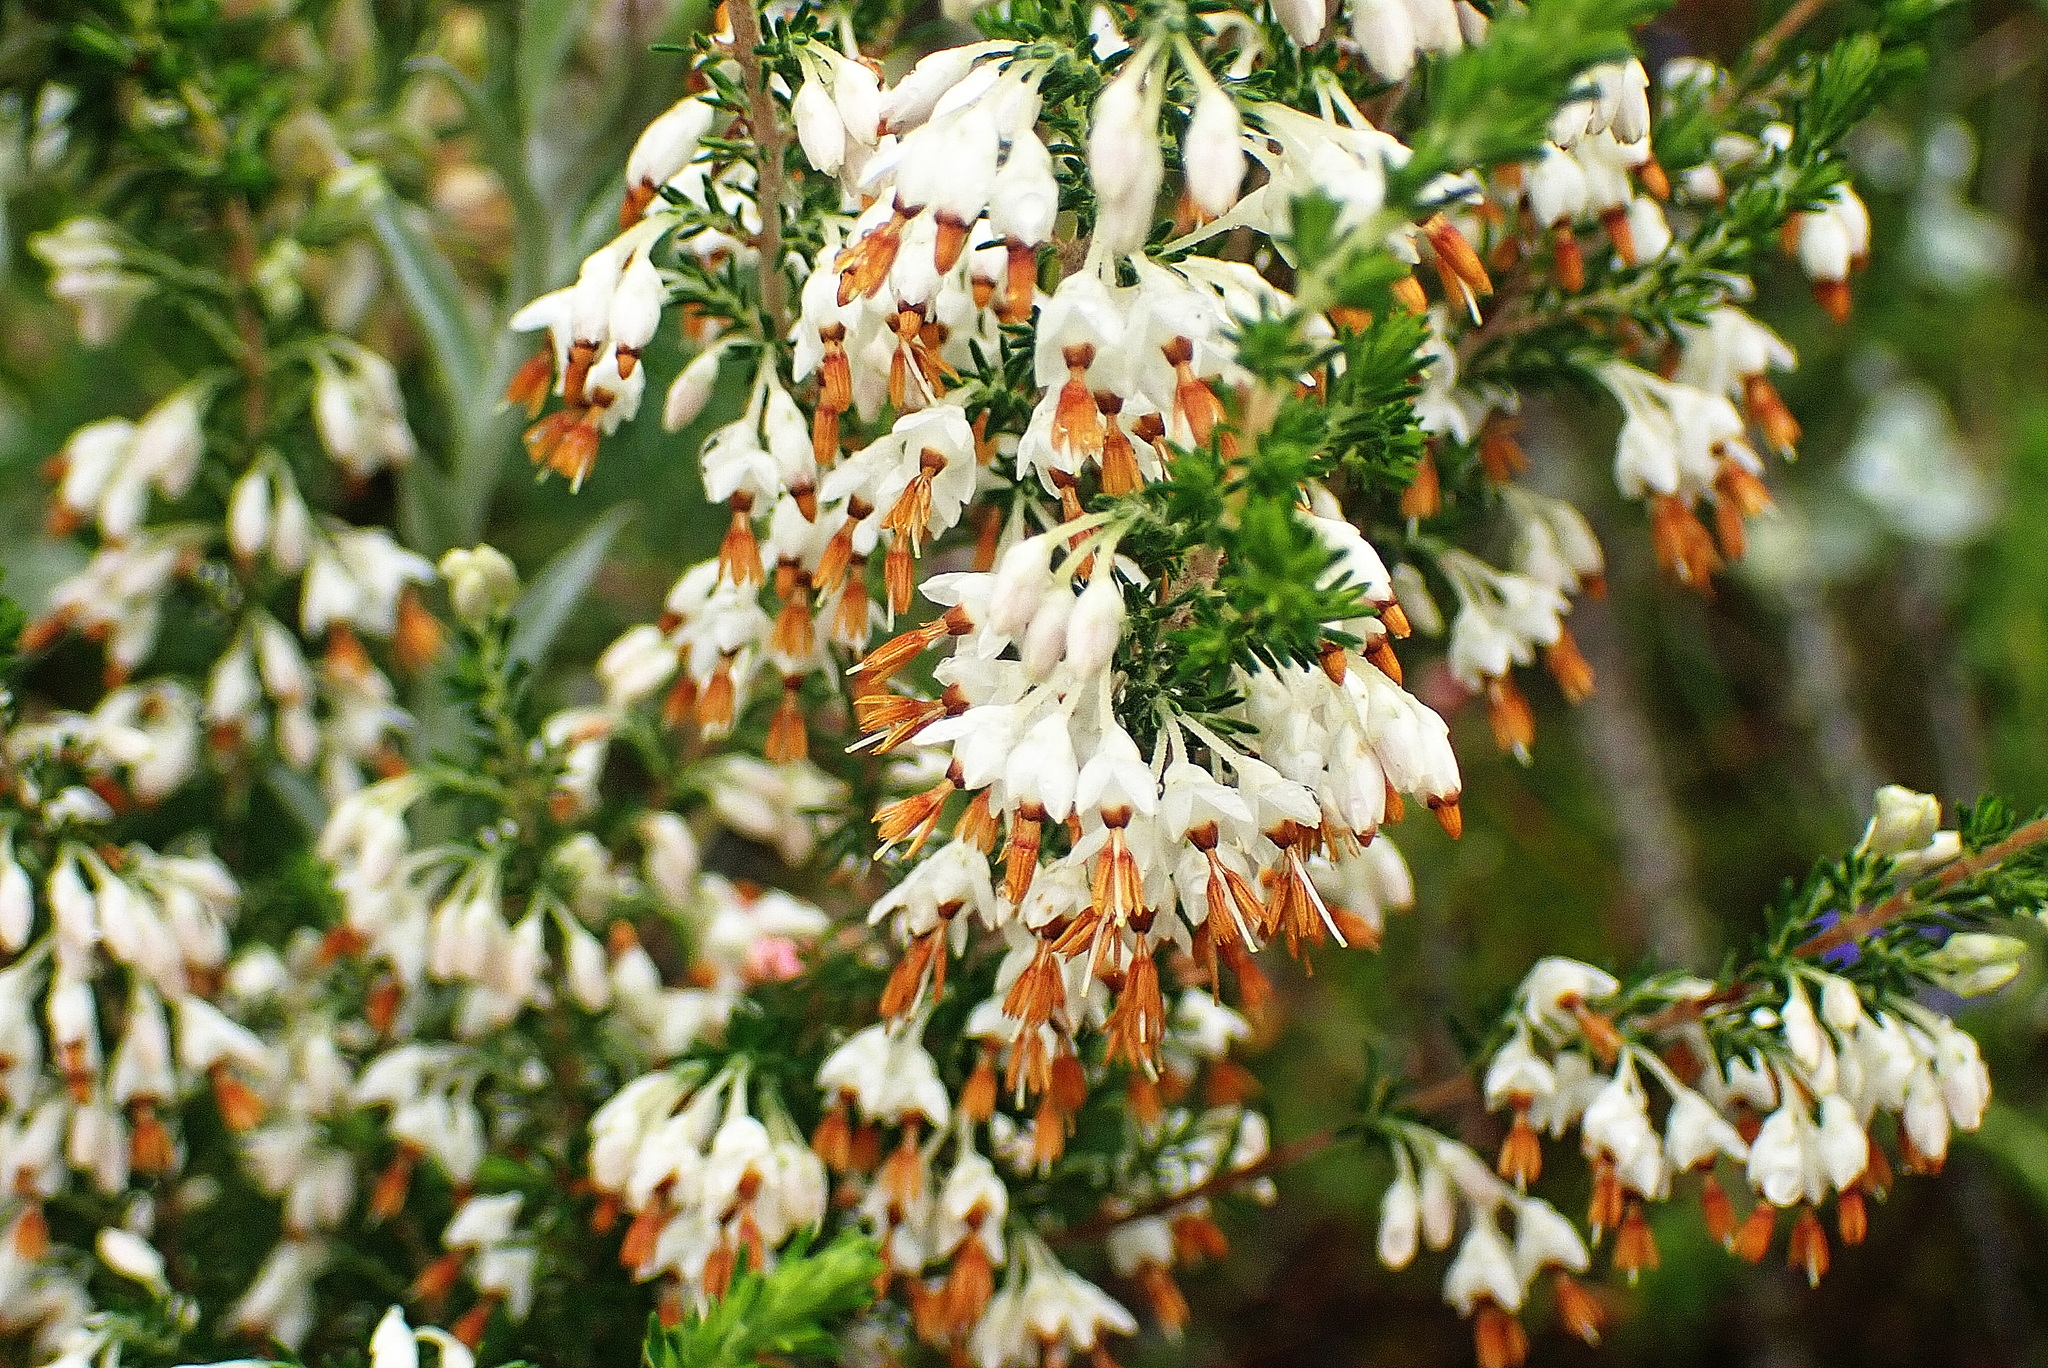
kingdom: Plantae
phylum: Tracheophyta
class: Magnoliopsida
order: Ericales
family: Ericaceae
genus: Erica
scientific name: Erica penicilliformis
